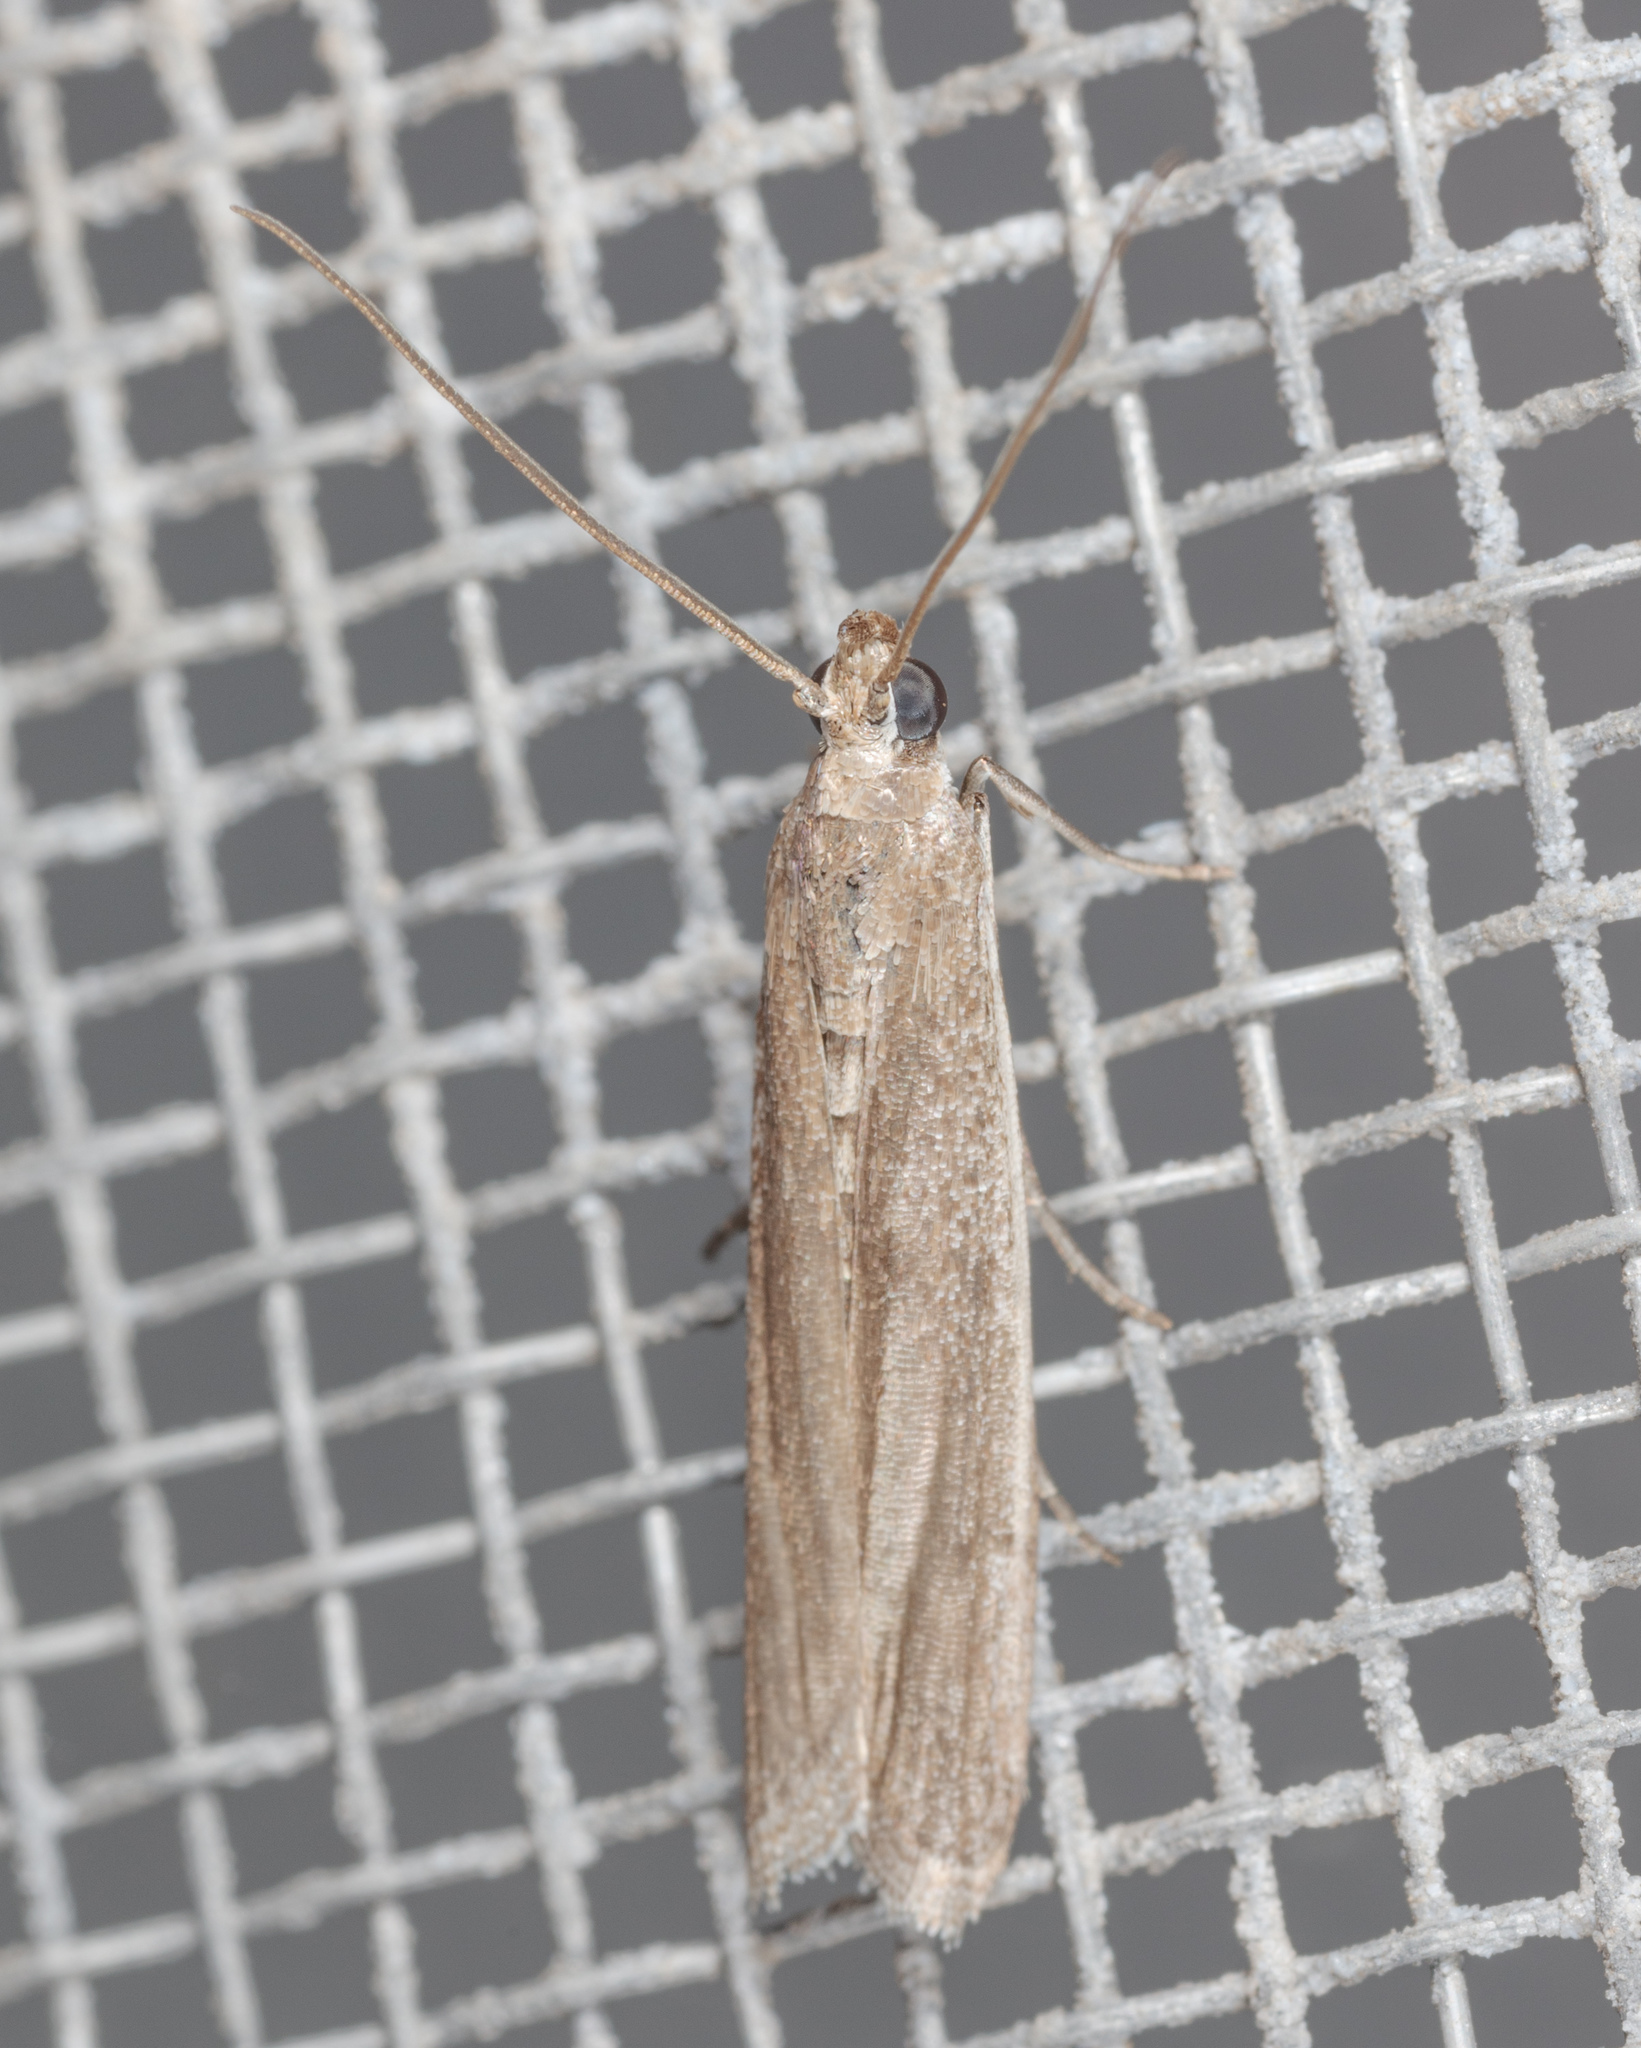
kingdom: Animalia
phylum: Arthropoda
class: Insecta
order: Lepidoptera
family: Pyralidae
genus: Homoeosoma
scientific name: Homoeosoma electella
